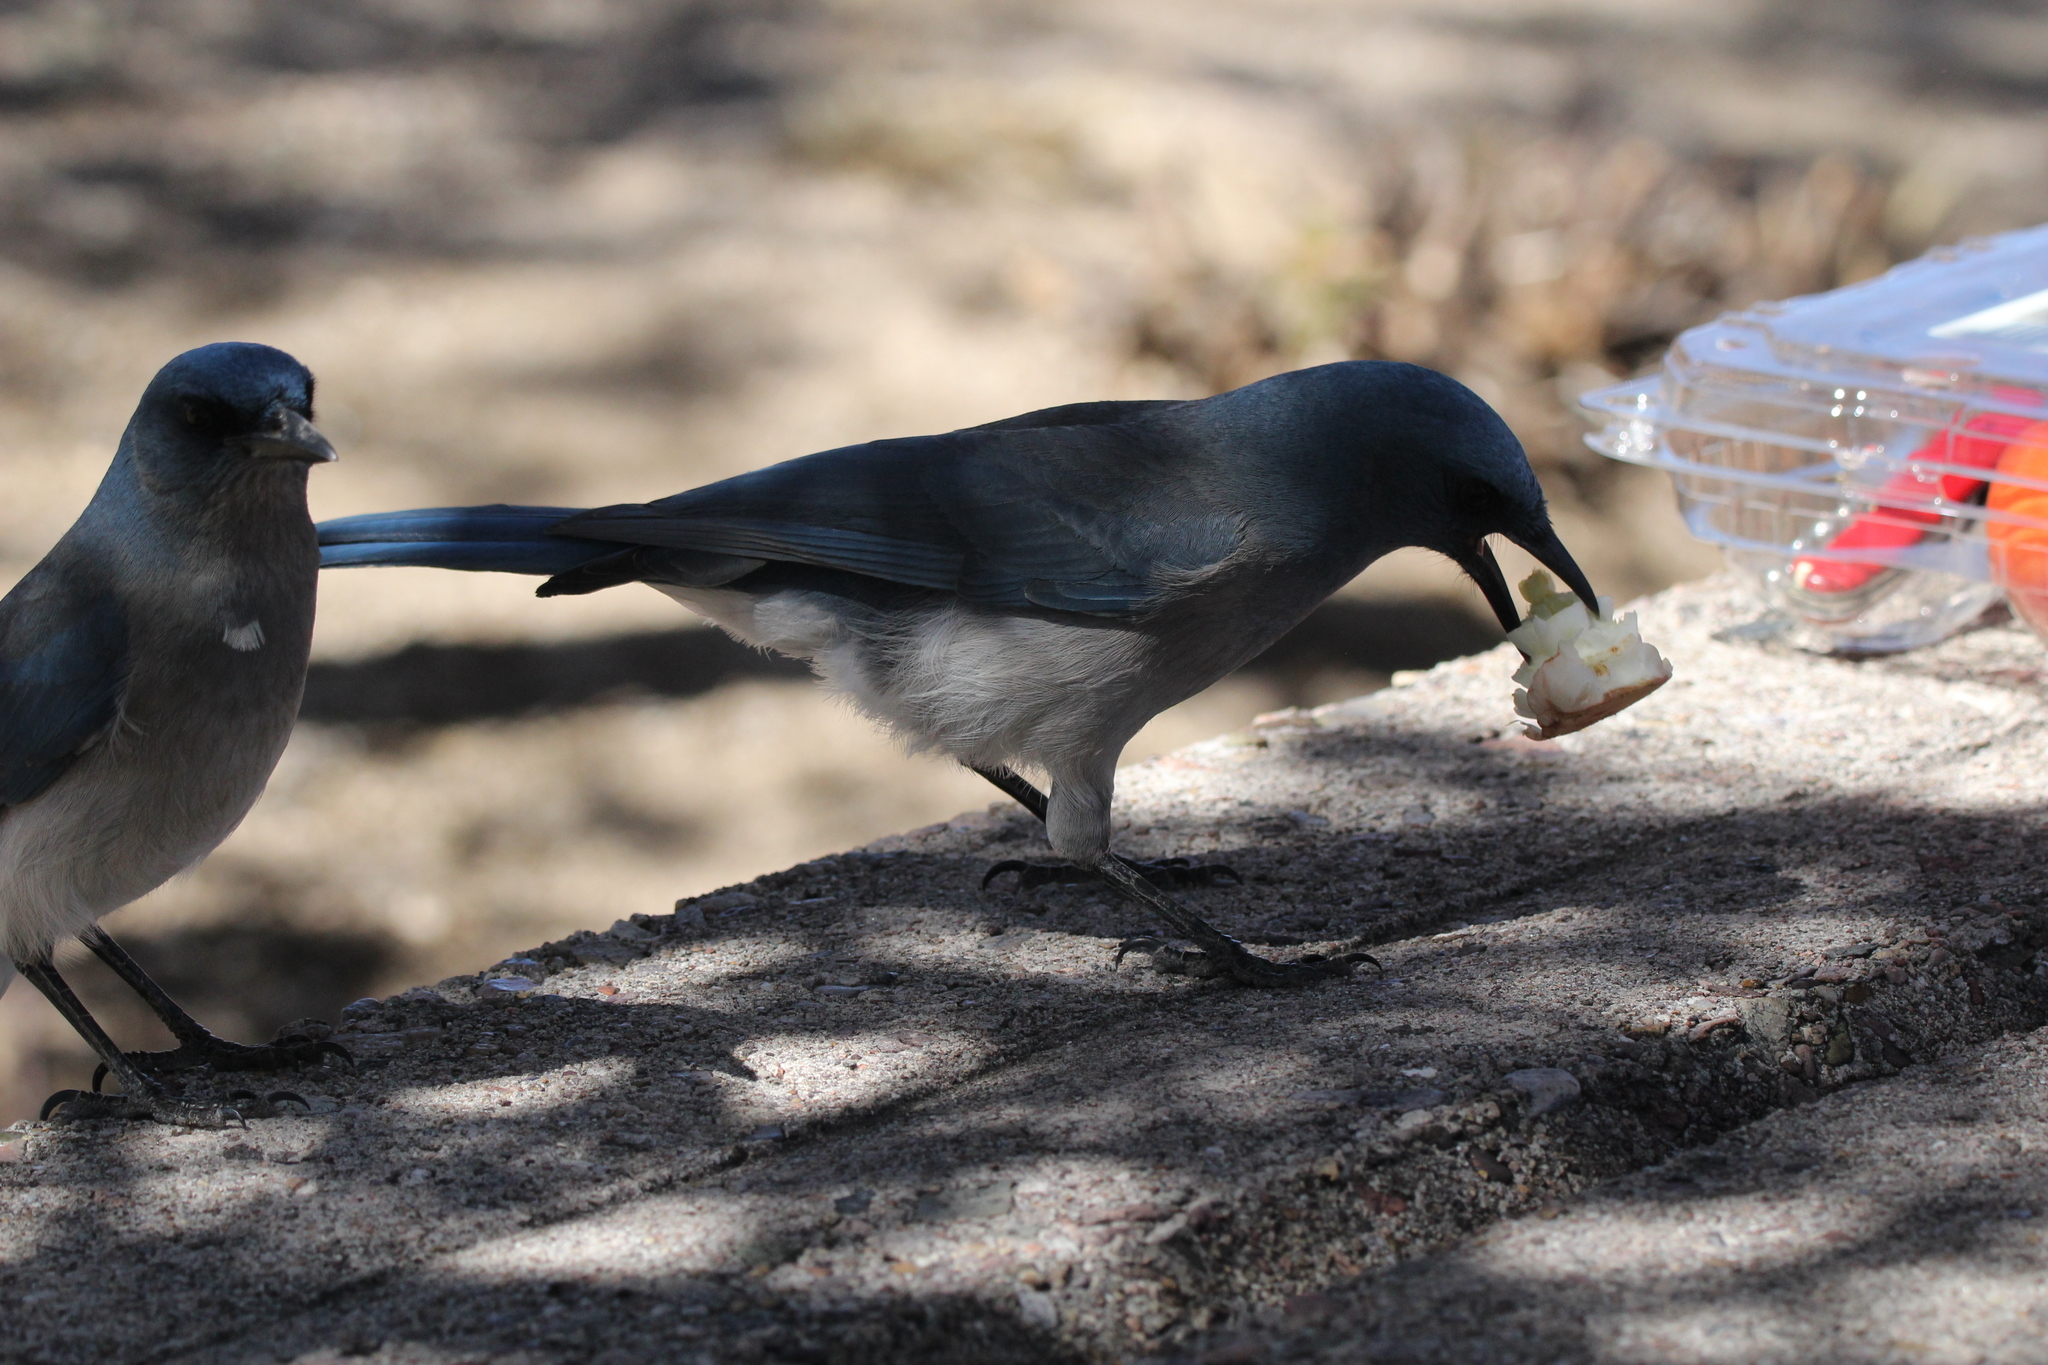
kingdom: Animalia
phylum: Chordata
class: Aves
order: Passeriformes
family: Corvidae
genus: Aphelocoma
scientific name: Aphelocoma wollweberi
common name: Mexican jay
